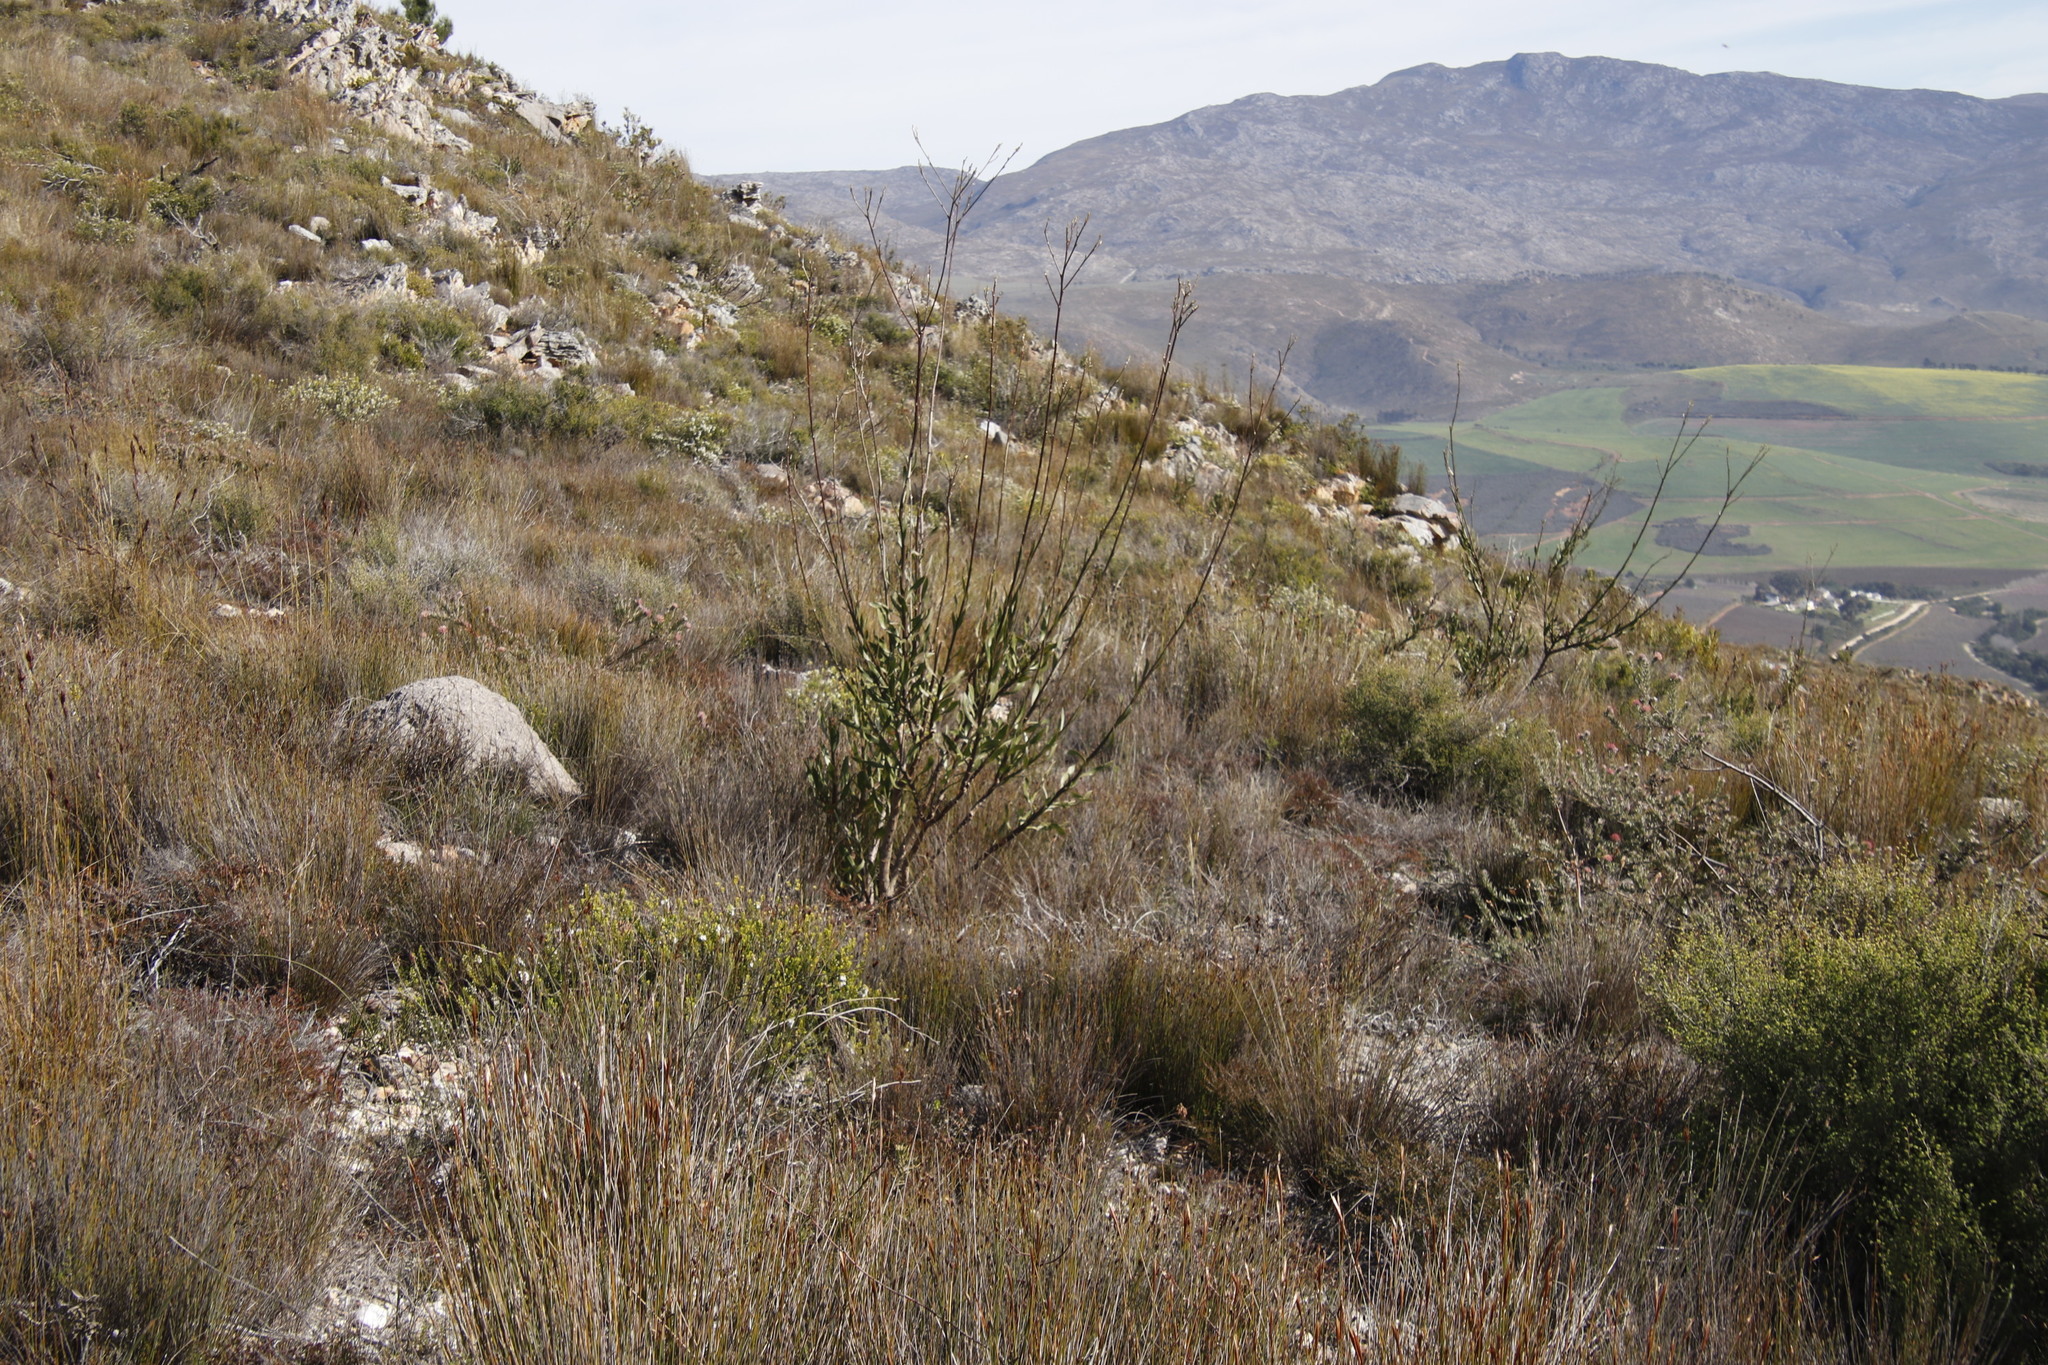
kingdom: Plantae
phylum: Tracheophyta
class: Magnoliopsida
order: Asterales
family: Asteraceae
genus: Othonna
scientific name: Othonna quinquedentata
